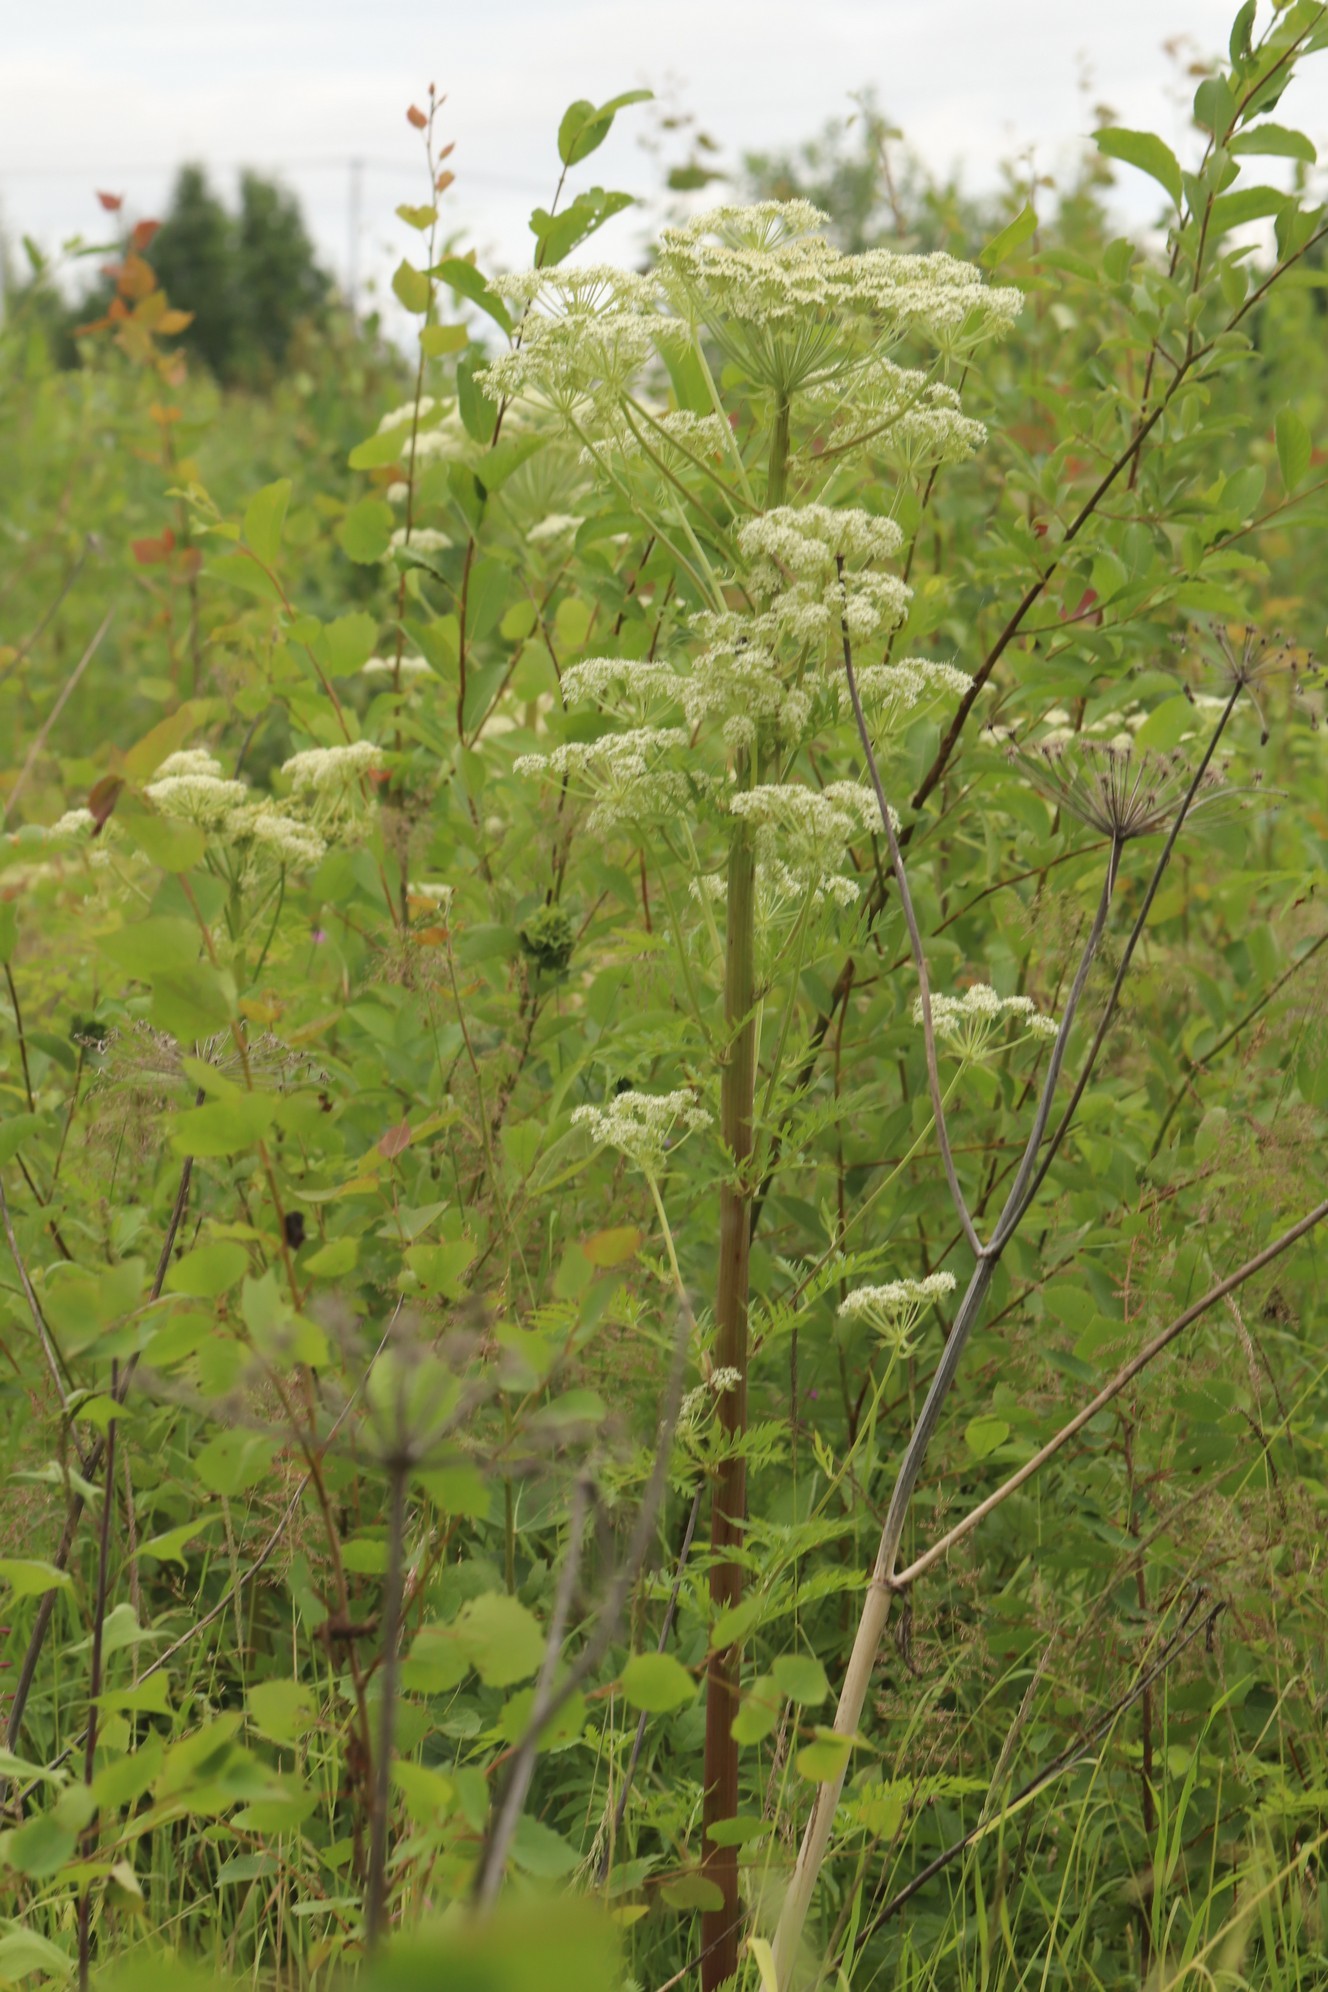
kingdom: Plantae
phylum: Tracheophyta
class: Magnoliopsida
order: Apiales
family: Apiaceae
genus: Pleurospermum
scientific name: Pleurospermum uralense
